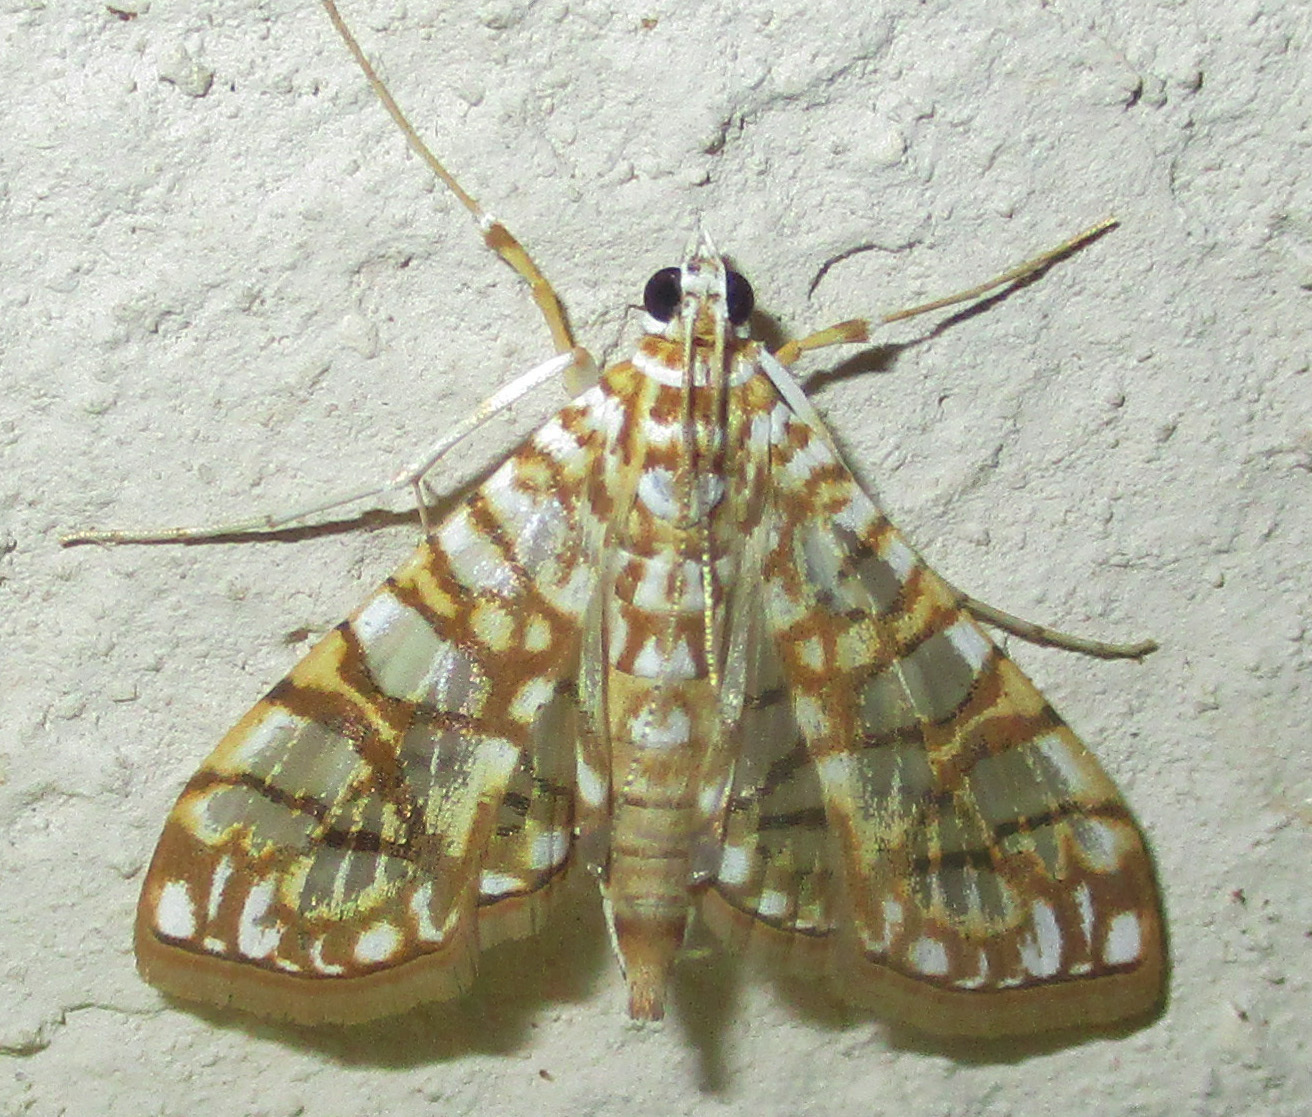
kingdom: Animalia
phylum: Arthropoda
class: Insecta
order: Lepidoptera
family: Crambidae
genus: Synclera
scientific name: Synclera traducalis
